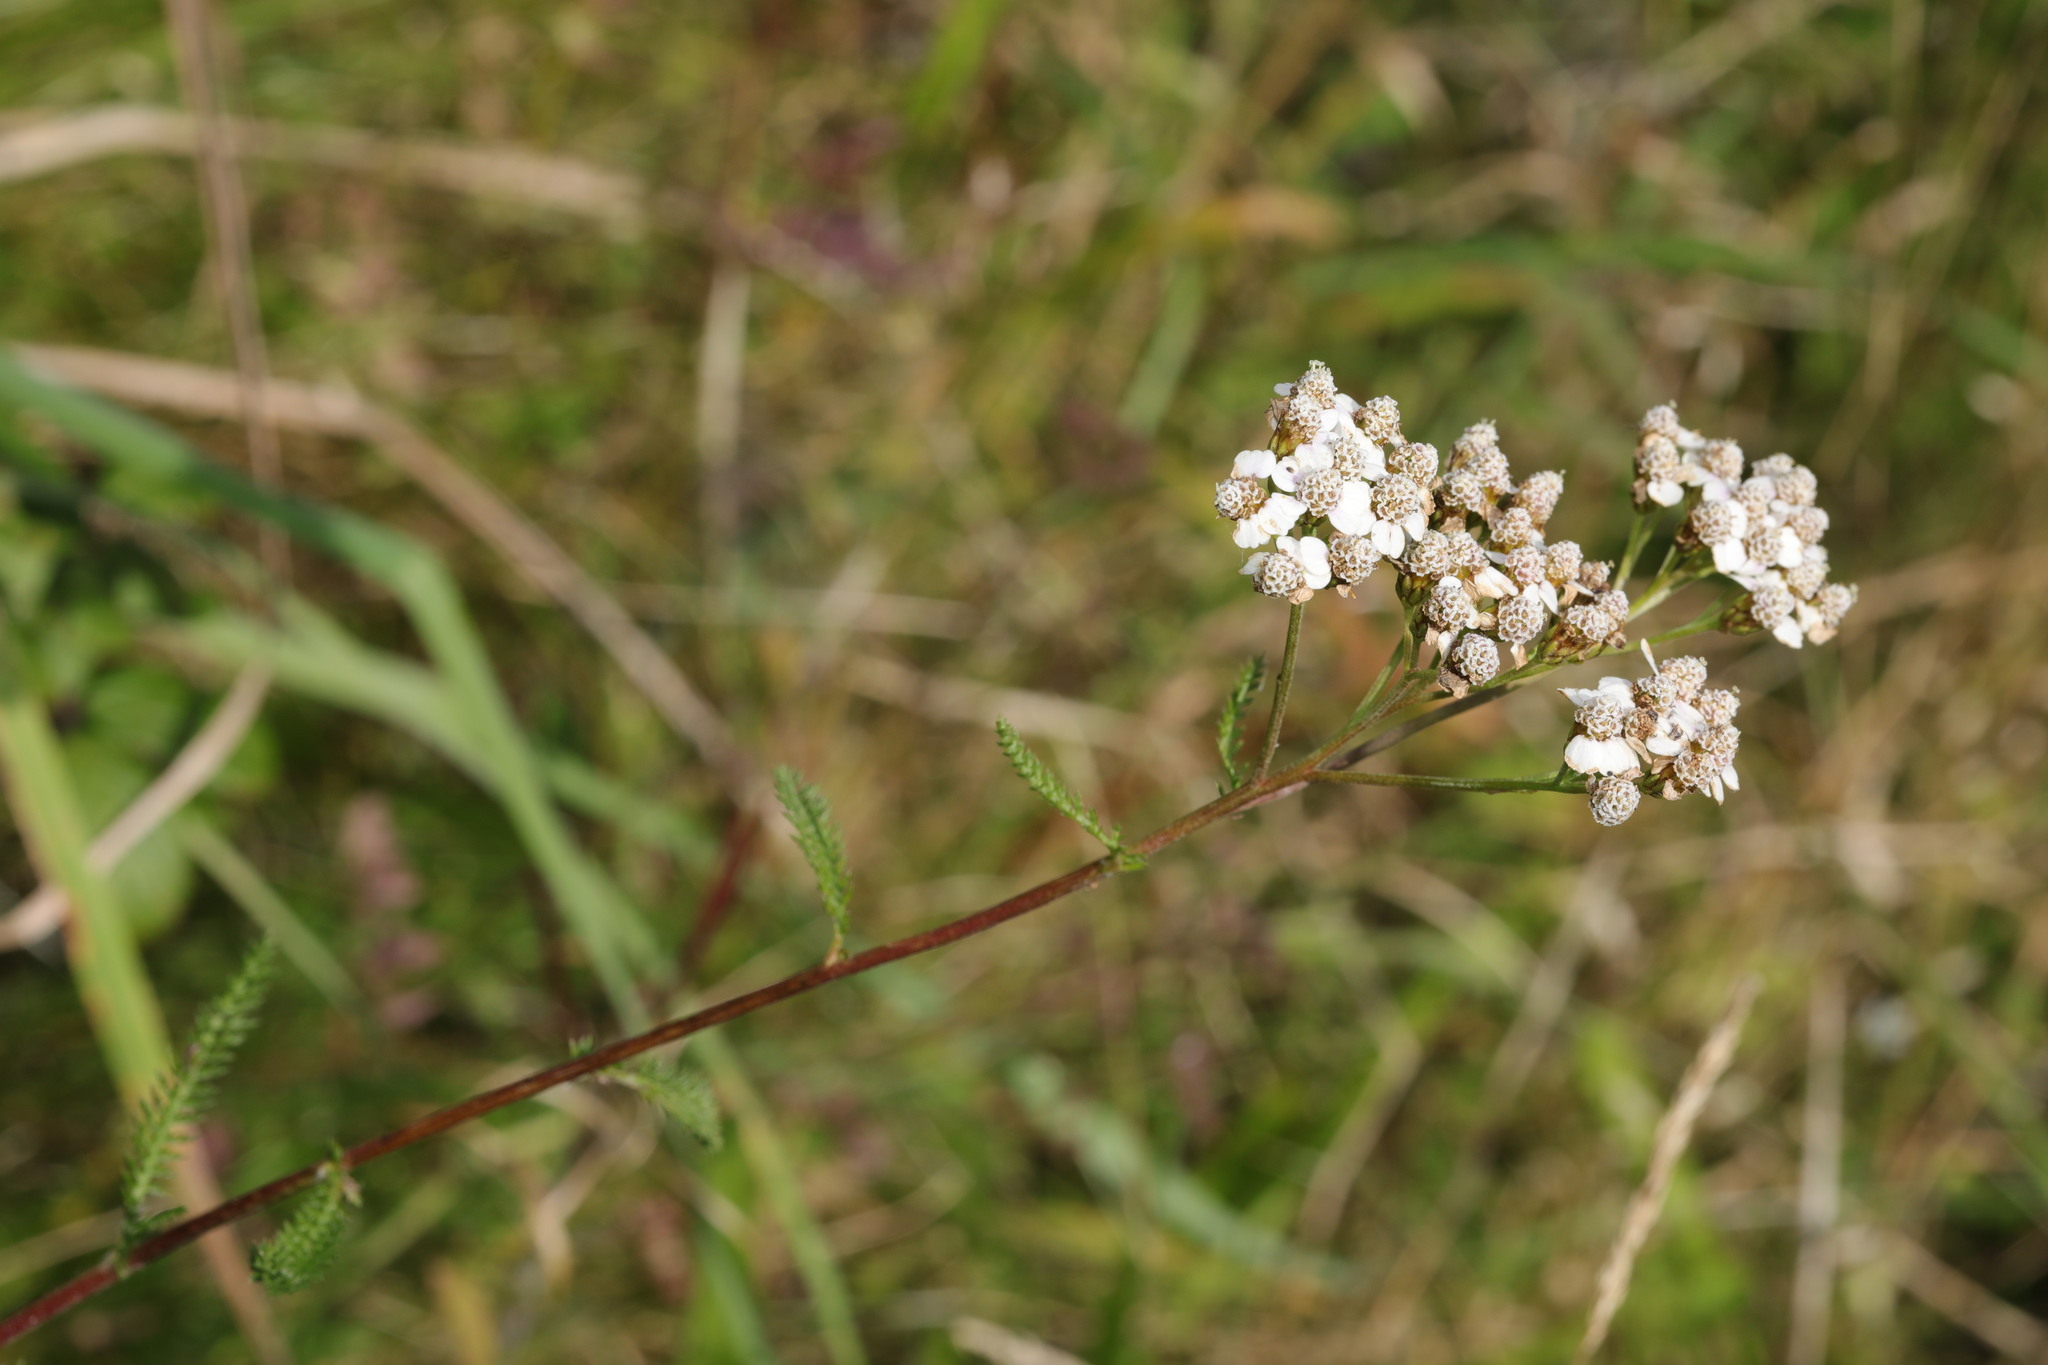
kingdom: Plantae
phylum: Tracheophyta
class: Magnoliopsida
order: Asterales
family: Asteraceae
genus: Achillea
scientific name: Achillea millefolium
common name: Yarrow
